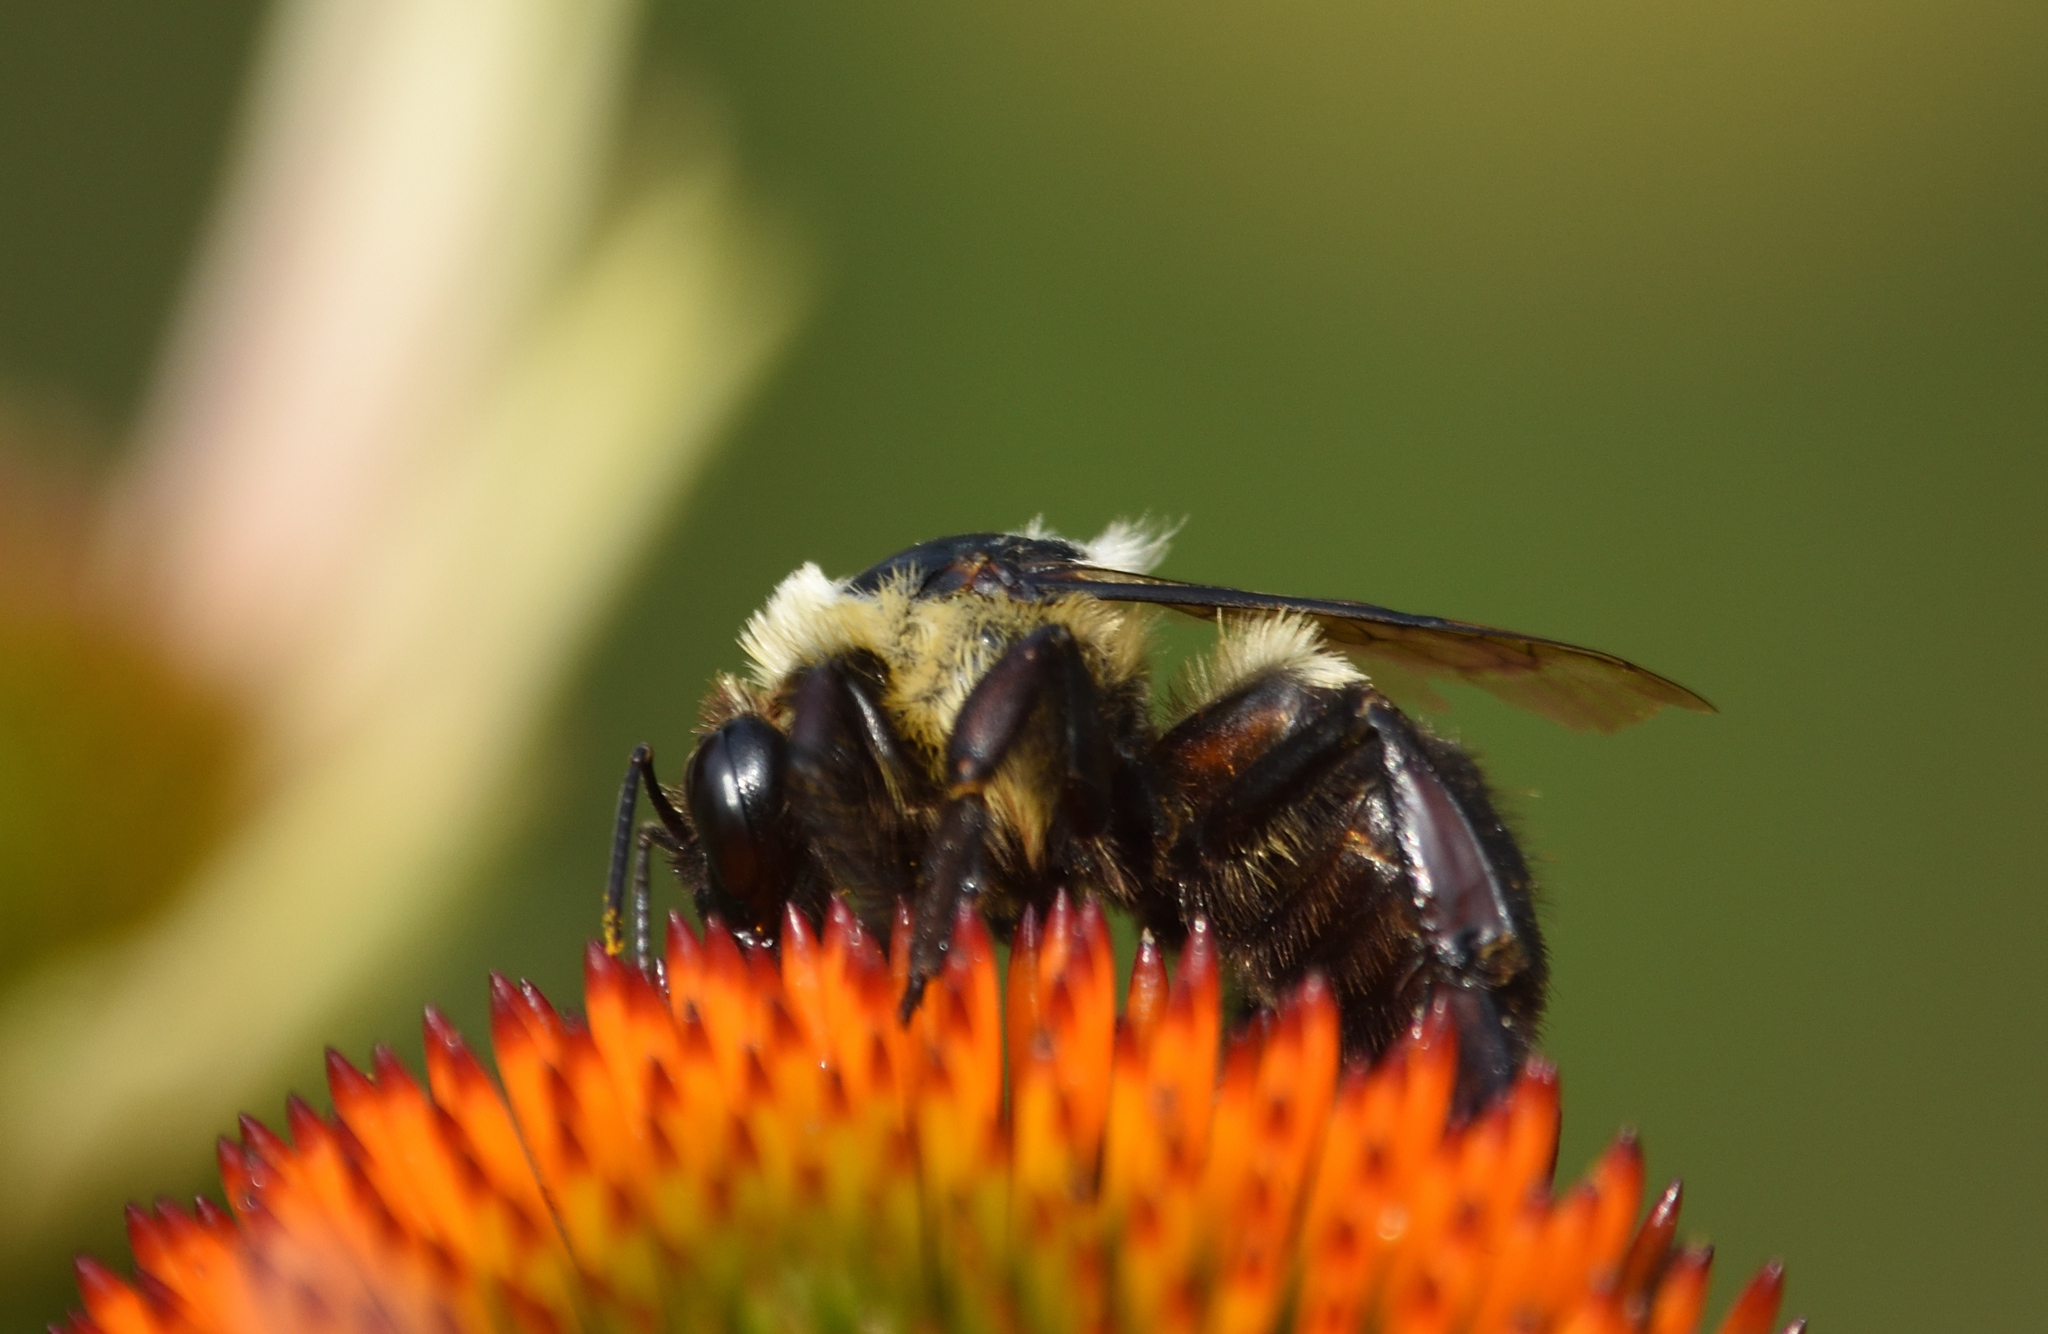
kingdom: Animalia
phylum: Arthropoda
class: Insecta
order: Hymenoptera
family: Apidae
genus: Bombus
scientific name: Bombus griseocollis
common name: Brown-belted bumble bee
